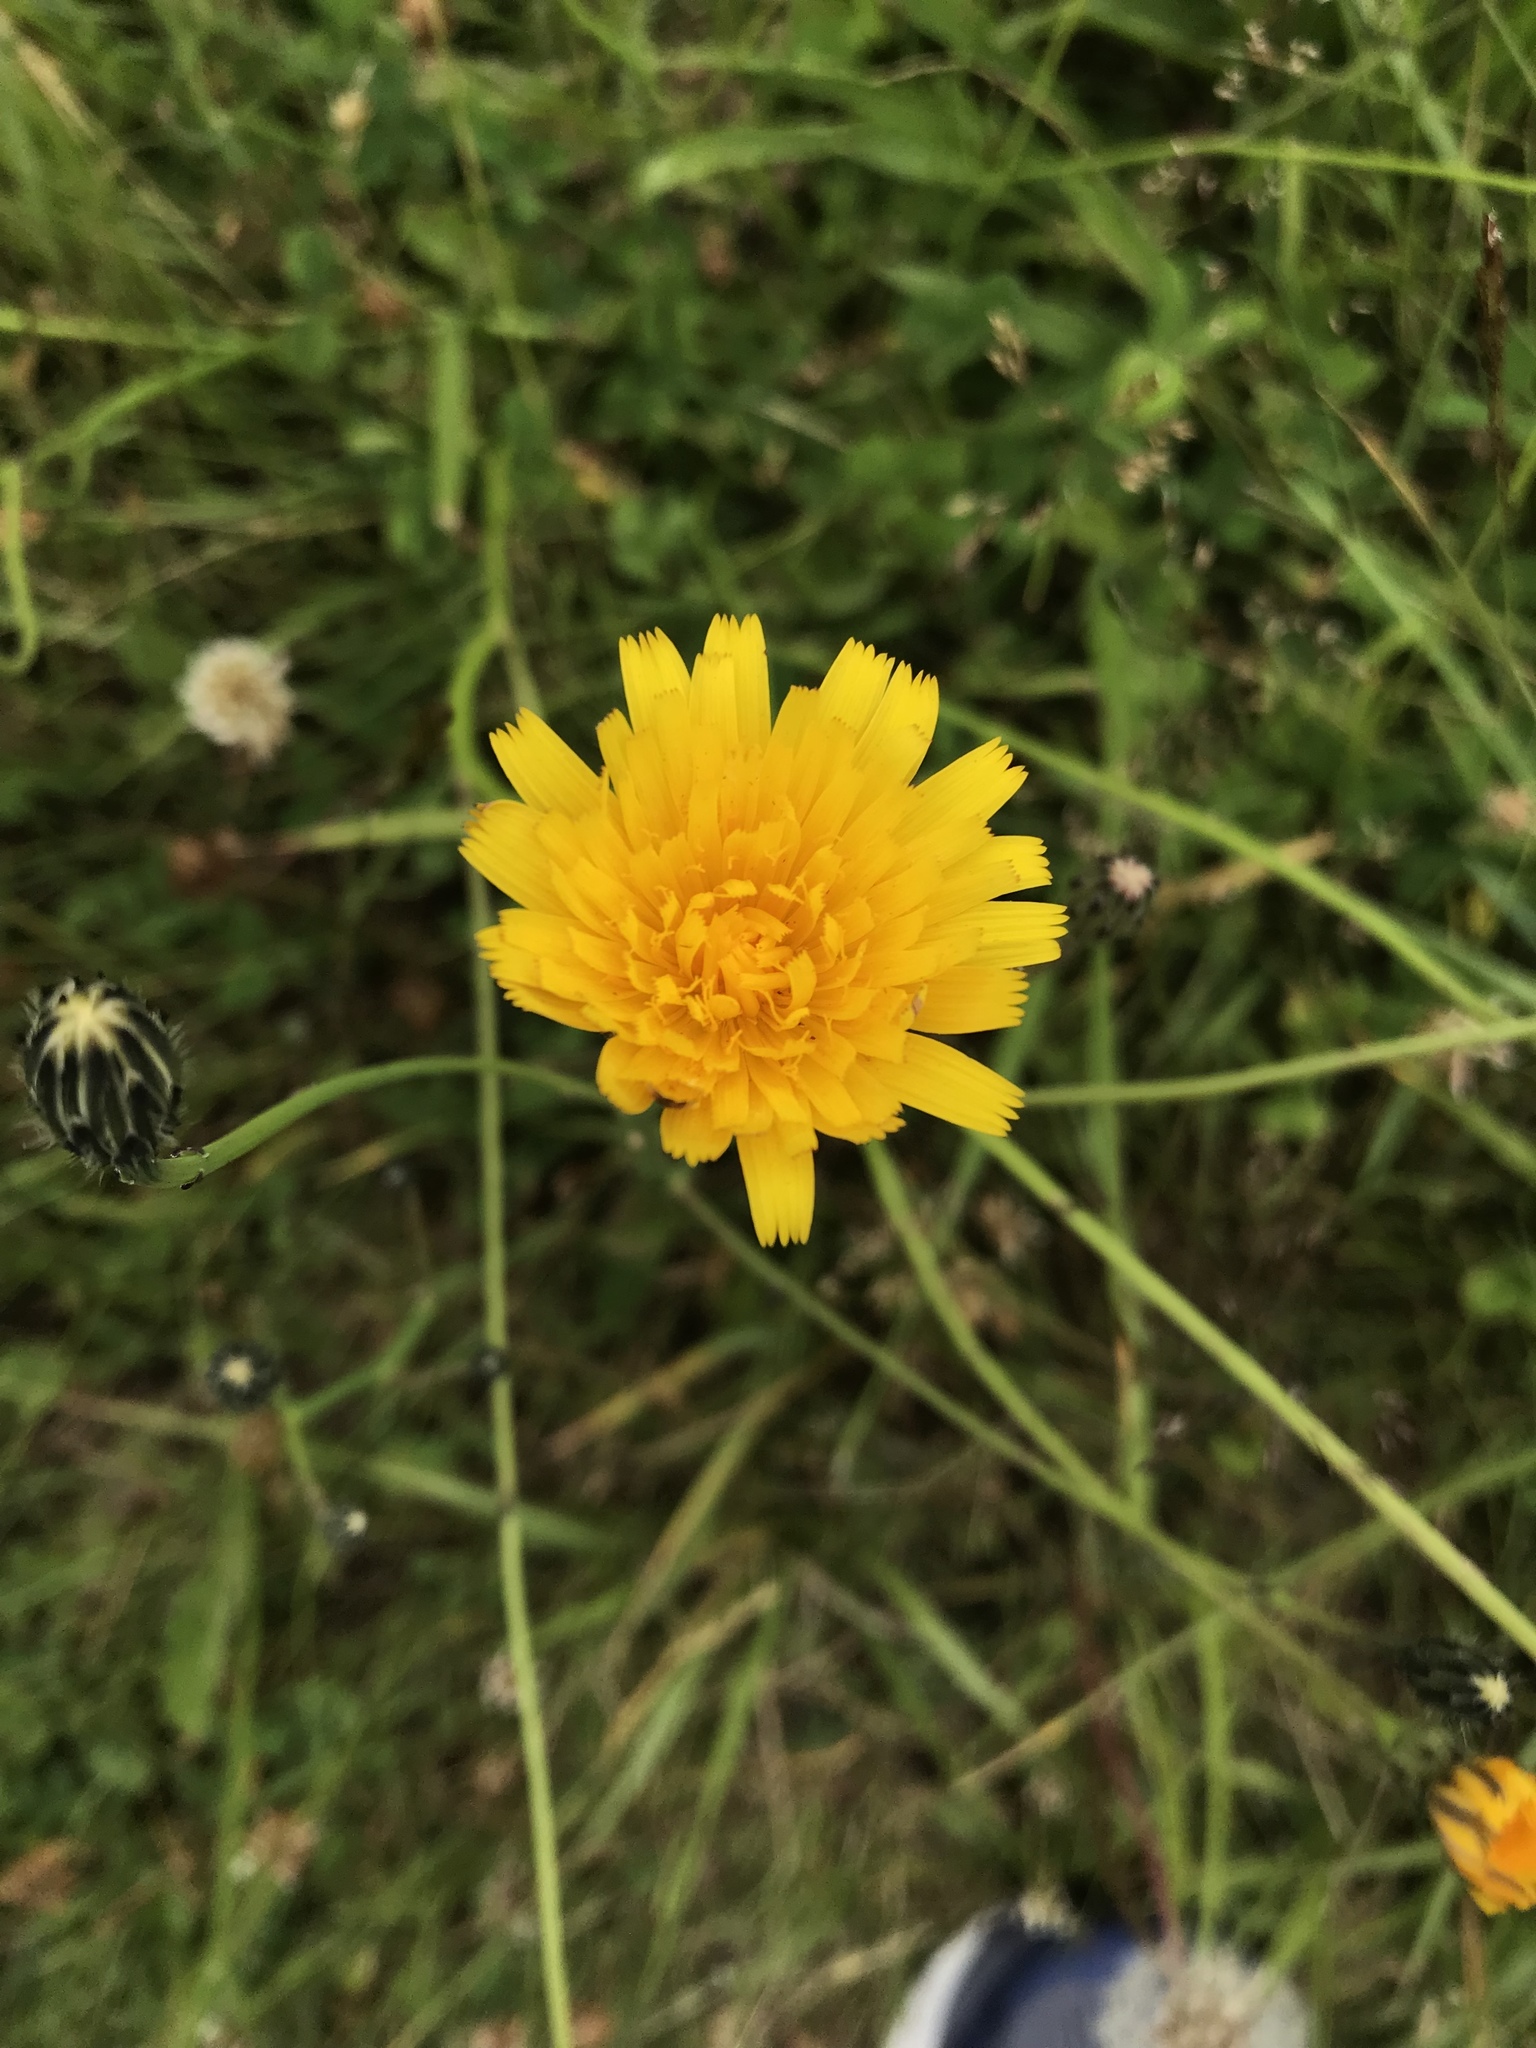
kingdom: Plantae
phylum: Tracheophyta
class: Magnoliopsida
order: Asterales
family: Asteraceae
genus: Hypochaeris
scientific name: Hypochaeris radicata
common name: Flatweed
